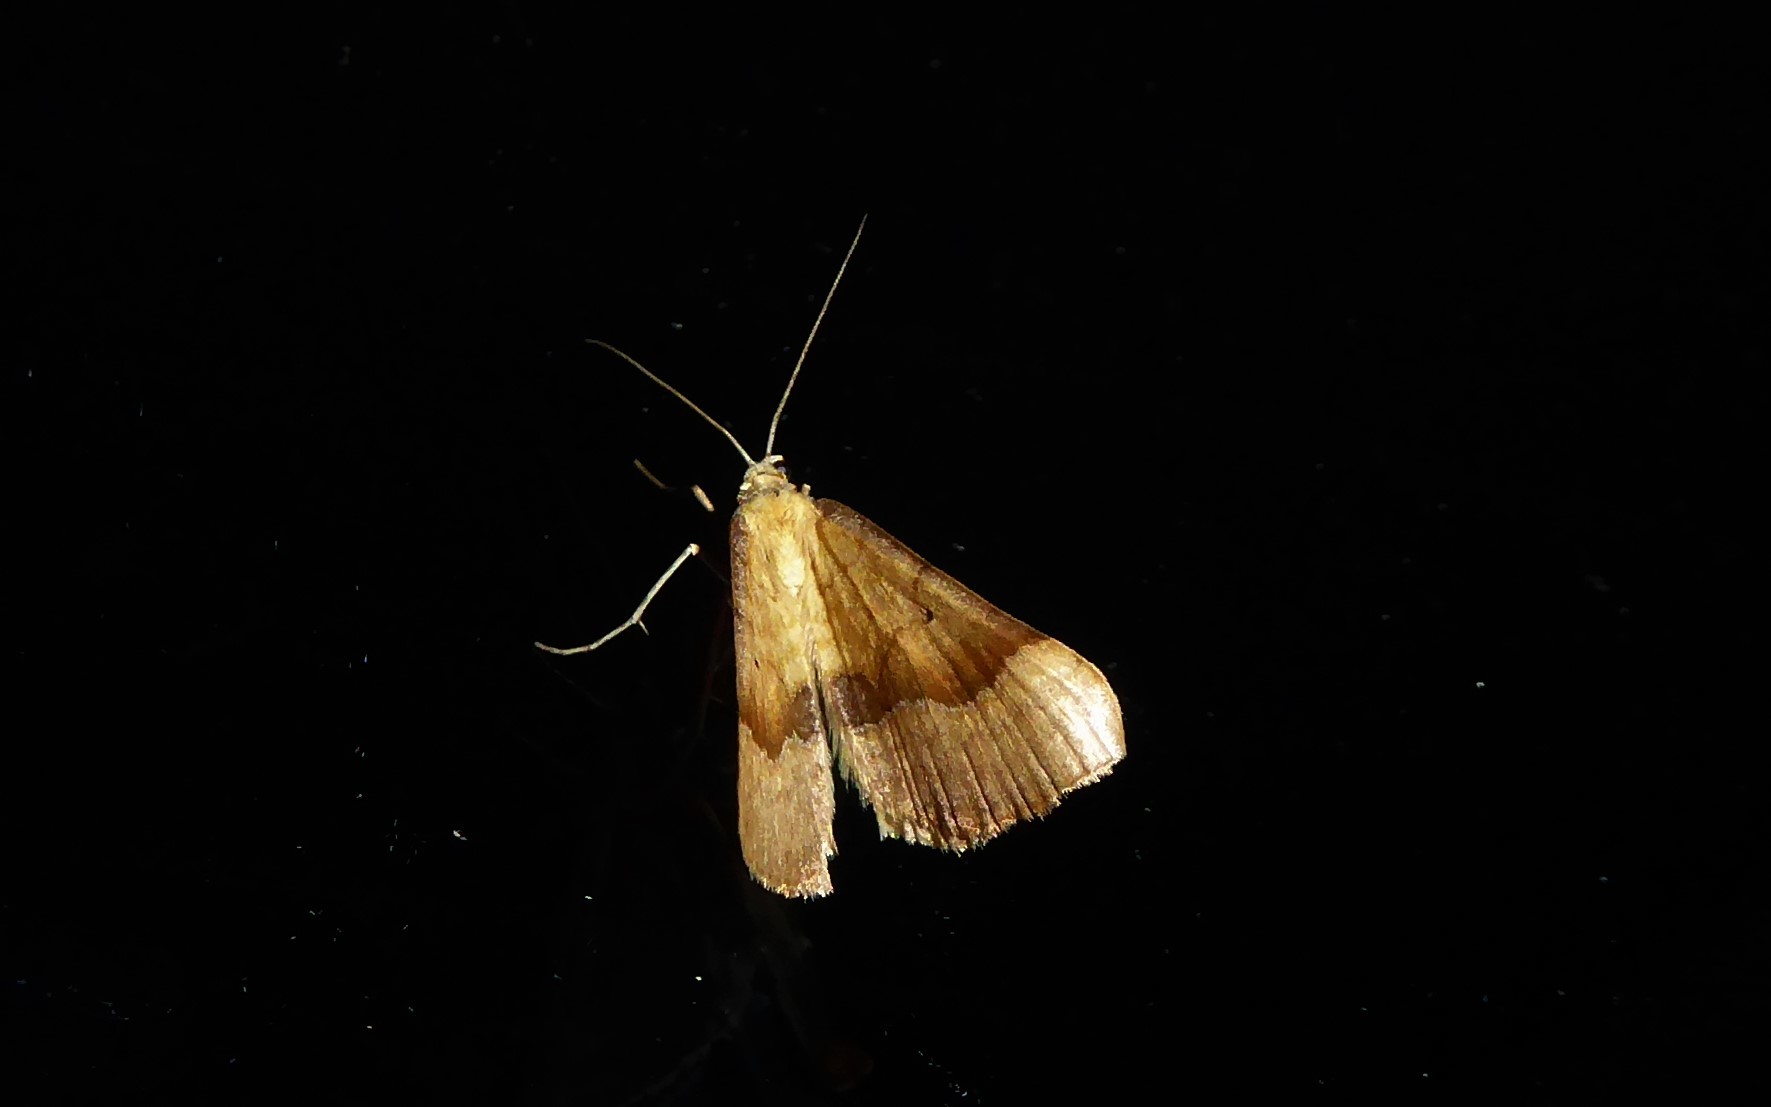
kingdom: Animalia
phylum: Arthropoda
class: Insecta
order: Lepidoptera
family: Geometridae
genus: Anachloris
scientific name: Anachloris subochraria
